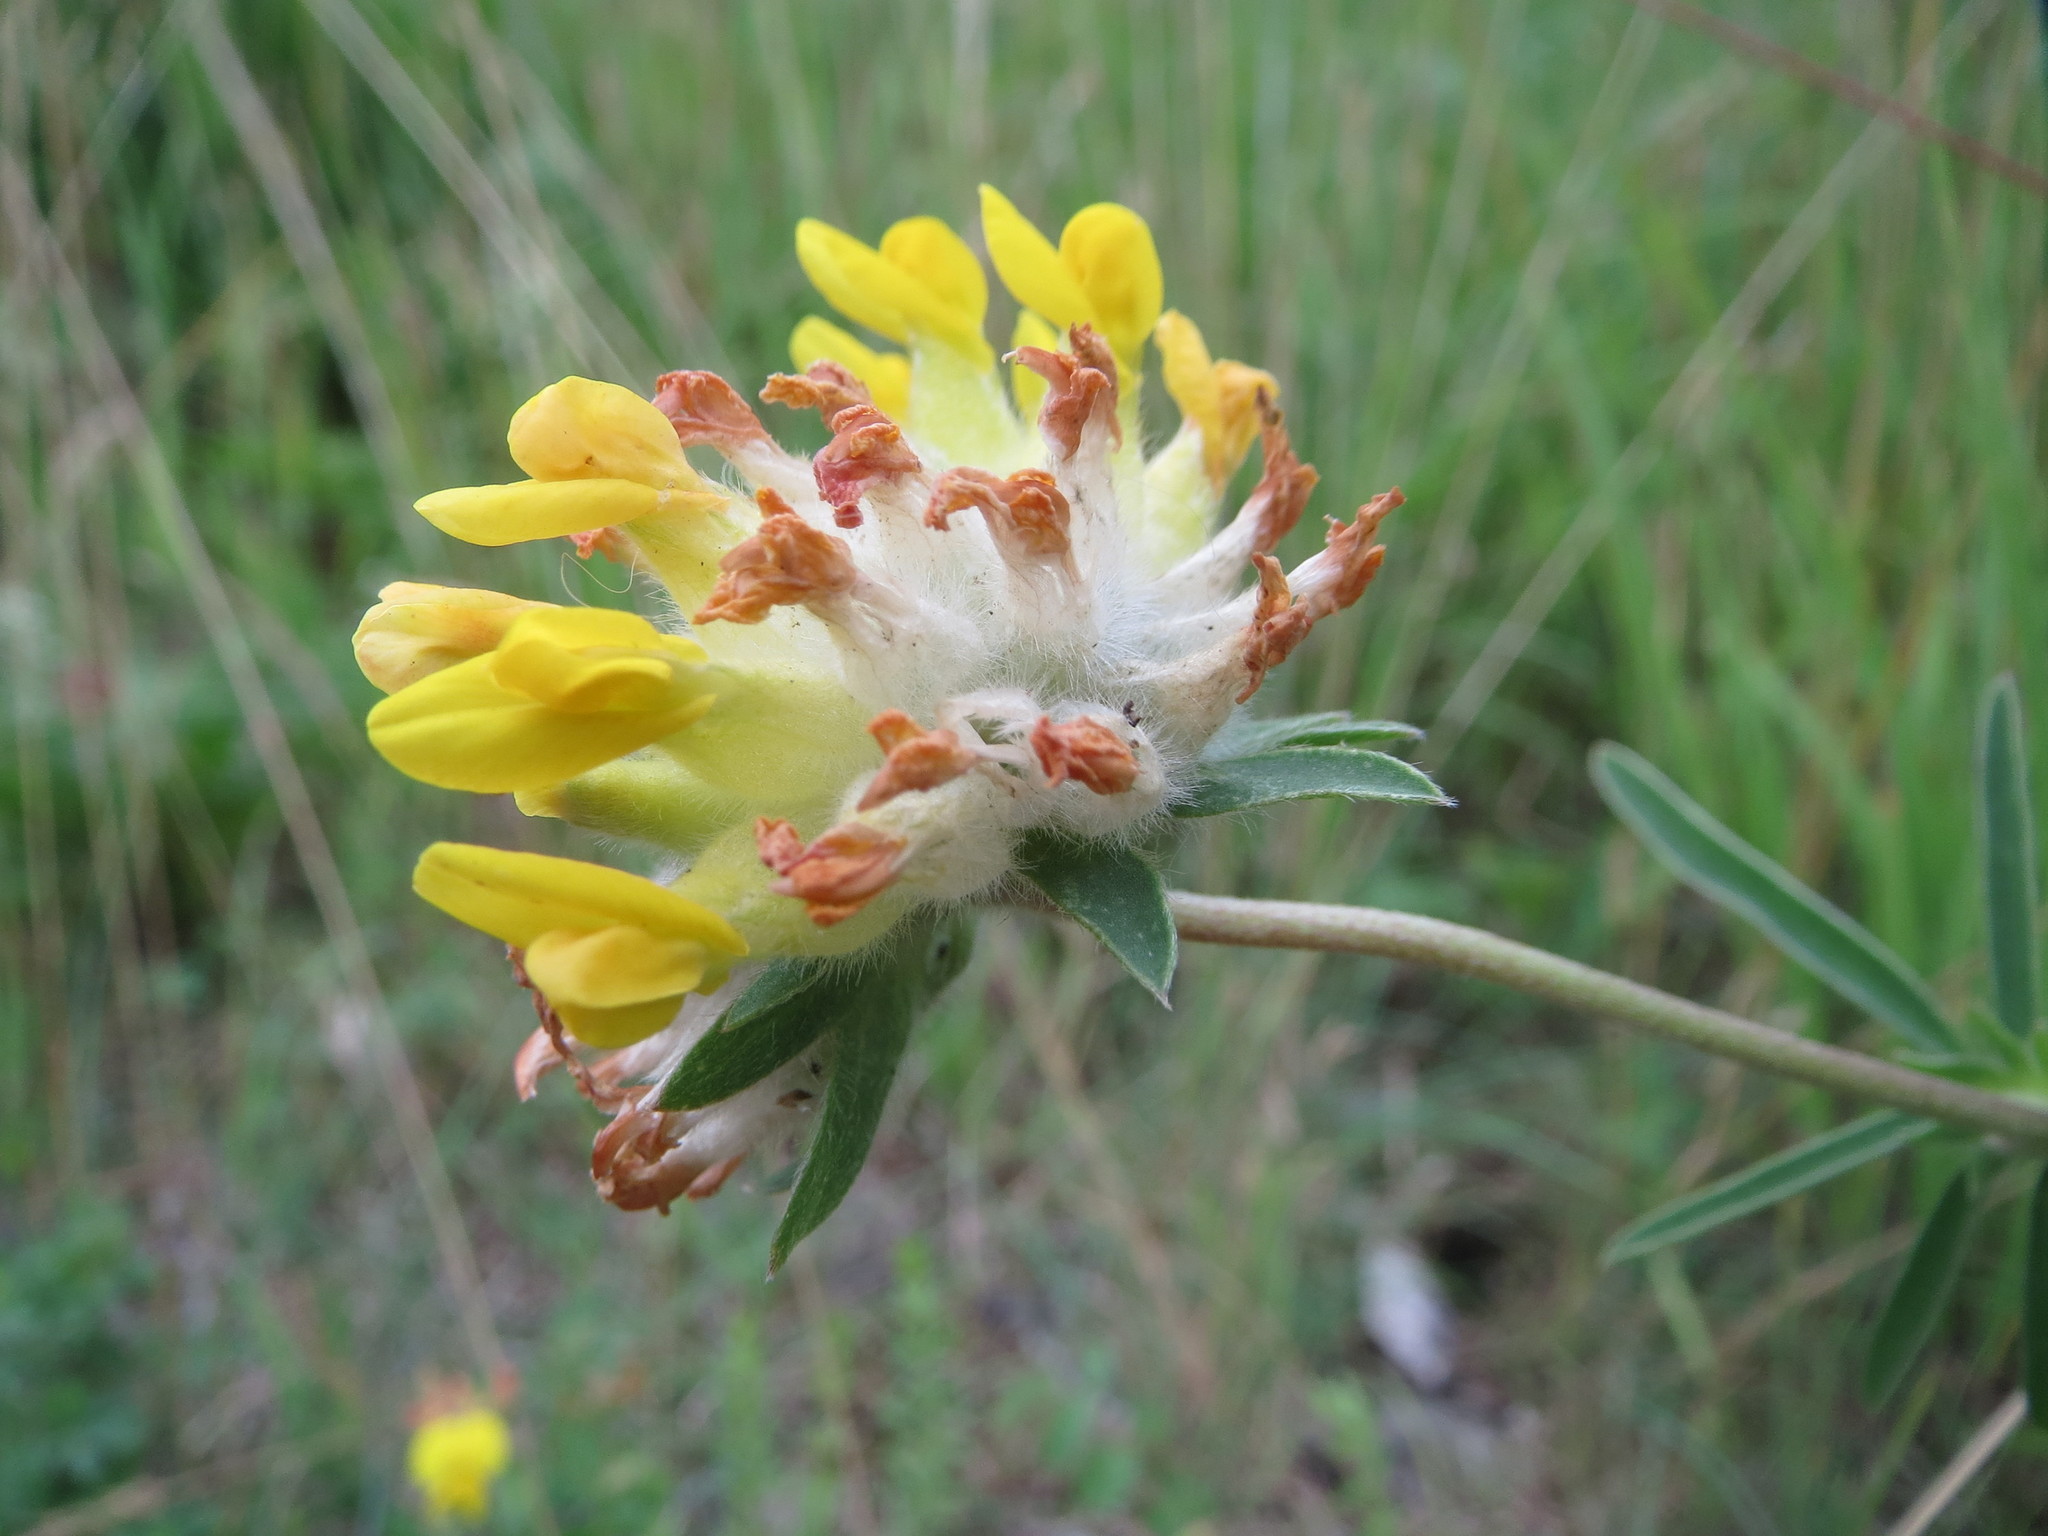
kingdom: Plantae
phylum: Tracheophyta
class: Magnoliopsida
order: Fabales
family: Fabaceae
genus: Anthyllis
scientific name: Anthyllis vulneraria
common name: Kidney vetch
